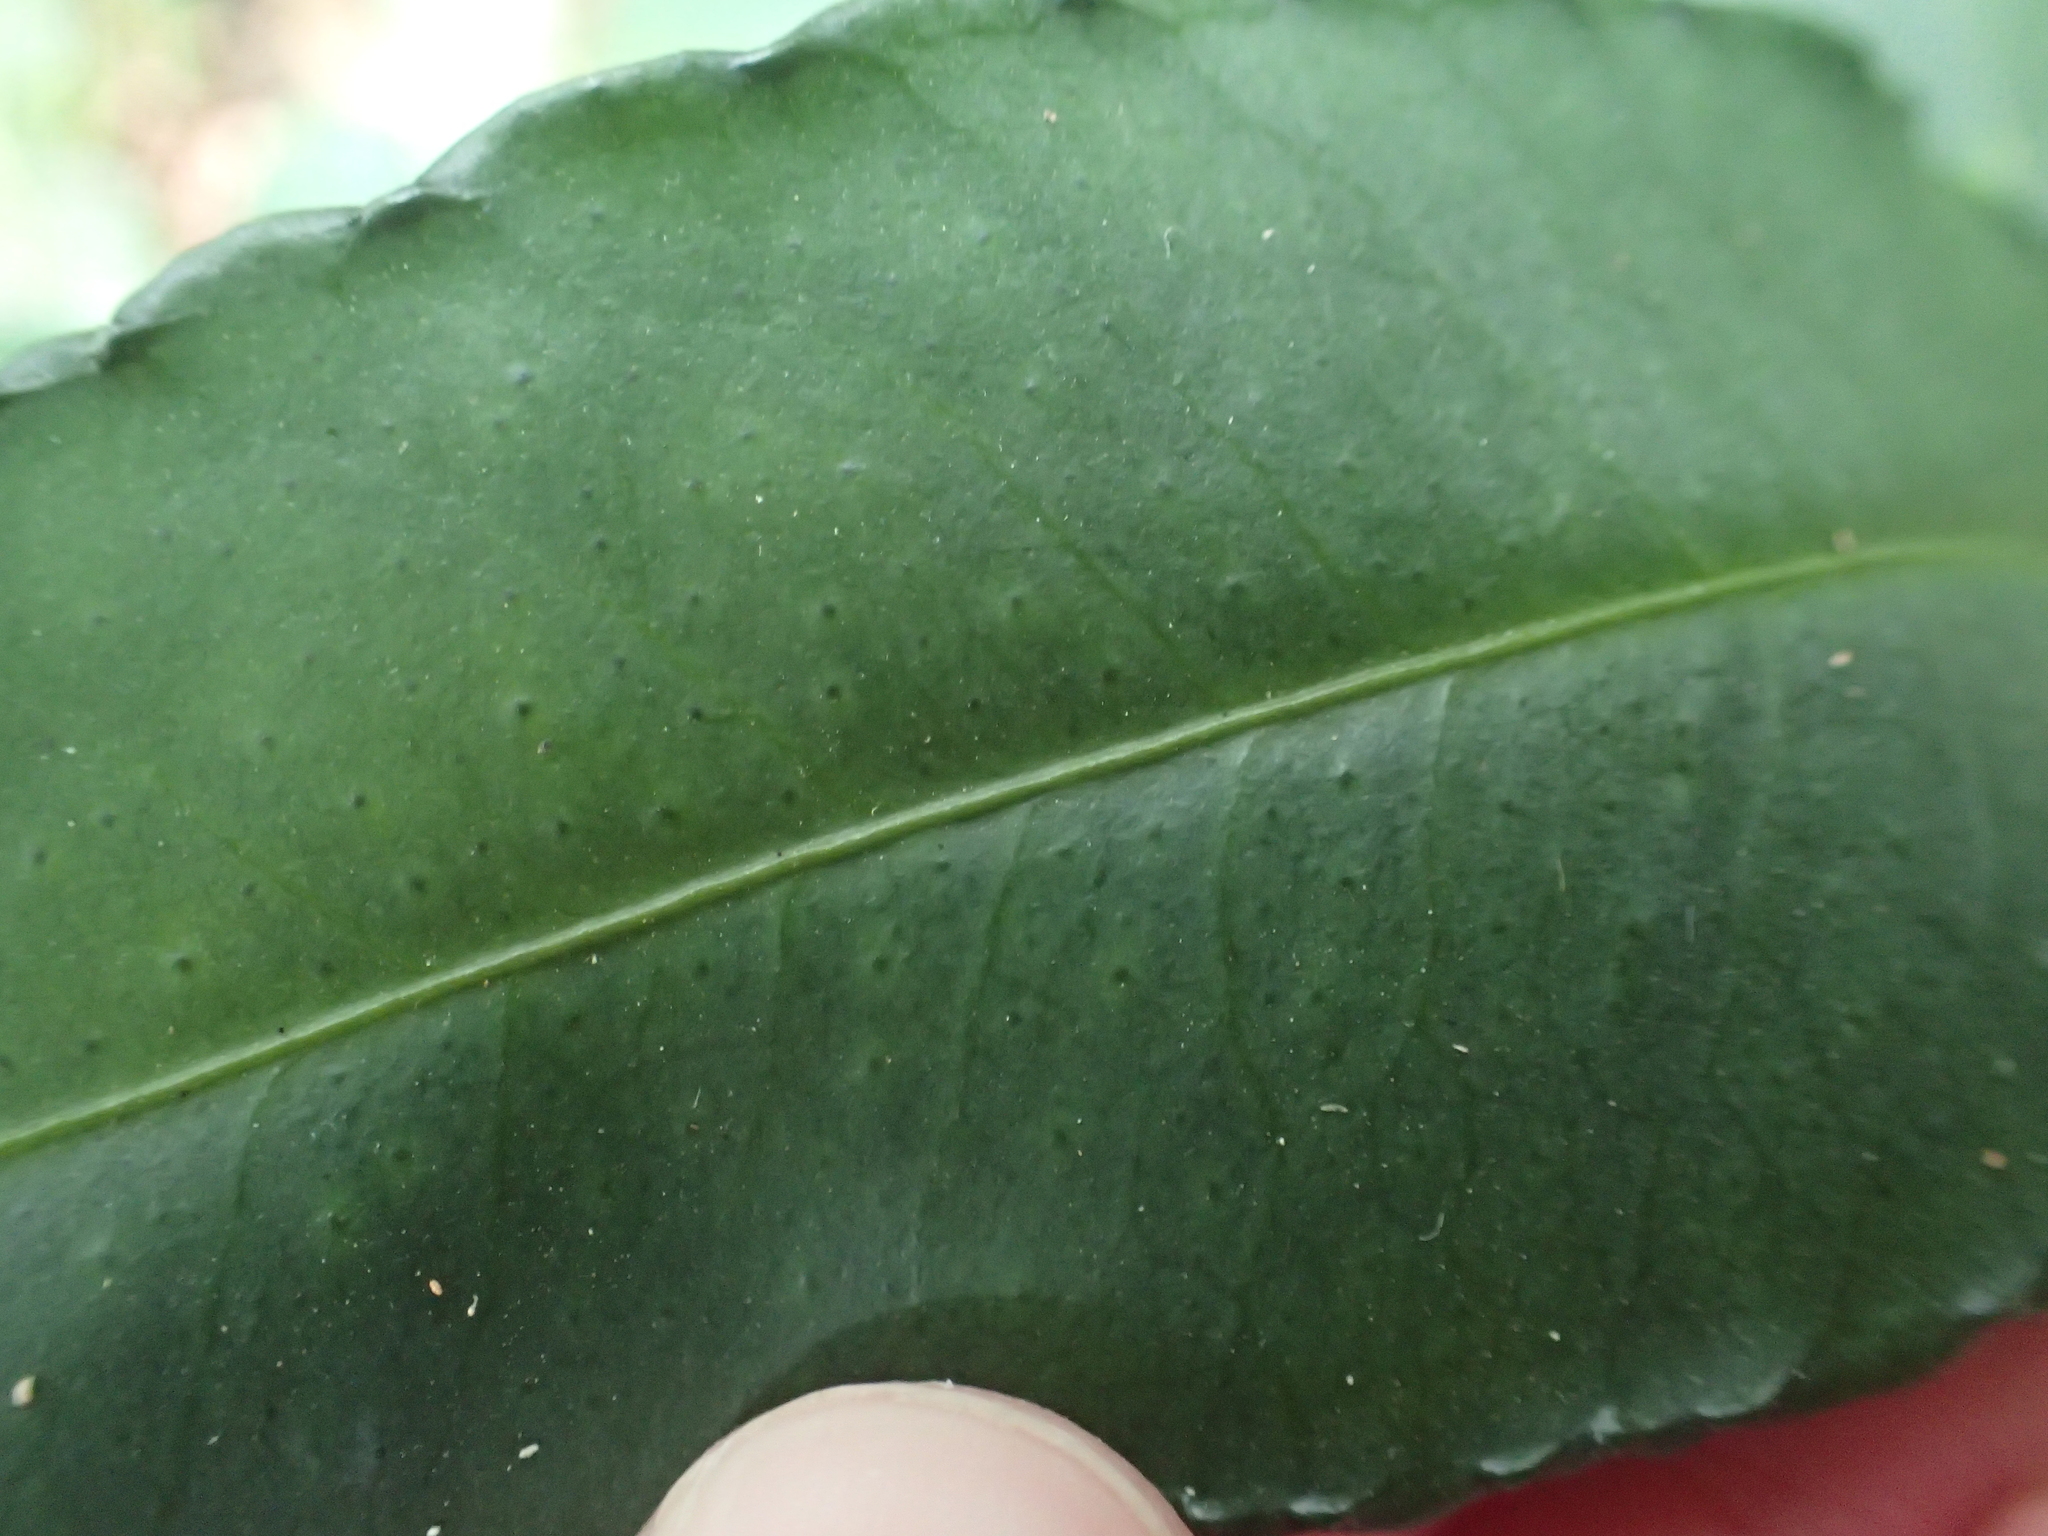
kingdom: Plantae
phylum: Tracheophyta
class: Magnoliopsida
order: Ericales
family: Primulaceae
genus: Ardisia
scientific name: Ardisia crenata
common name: Hen's eyes
